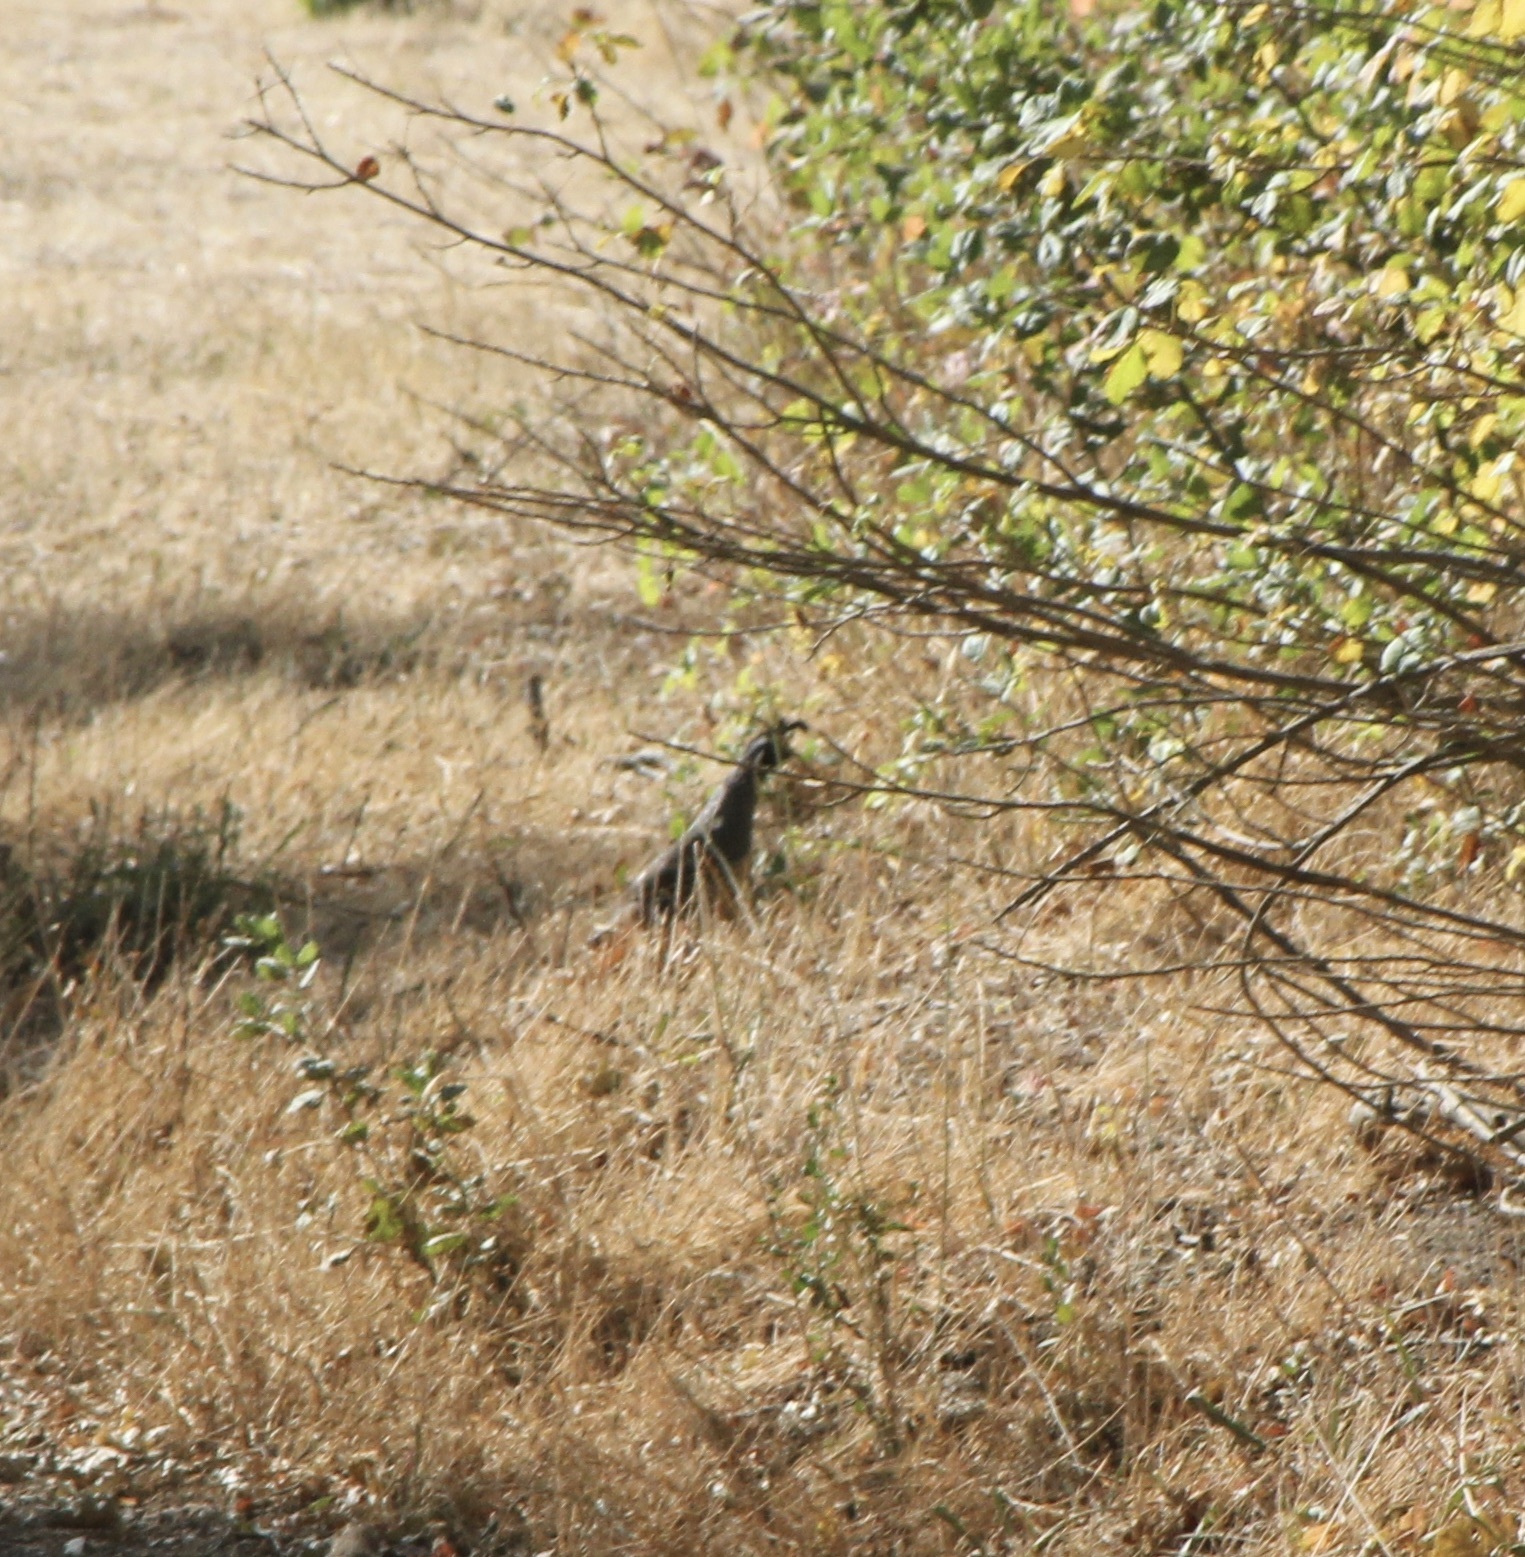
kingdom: Animalia
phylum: Chordata
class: Aves
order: Galliformes
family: Odontophoridae
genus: Callipepla
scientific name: Callipepla californica
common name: California quail
